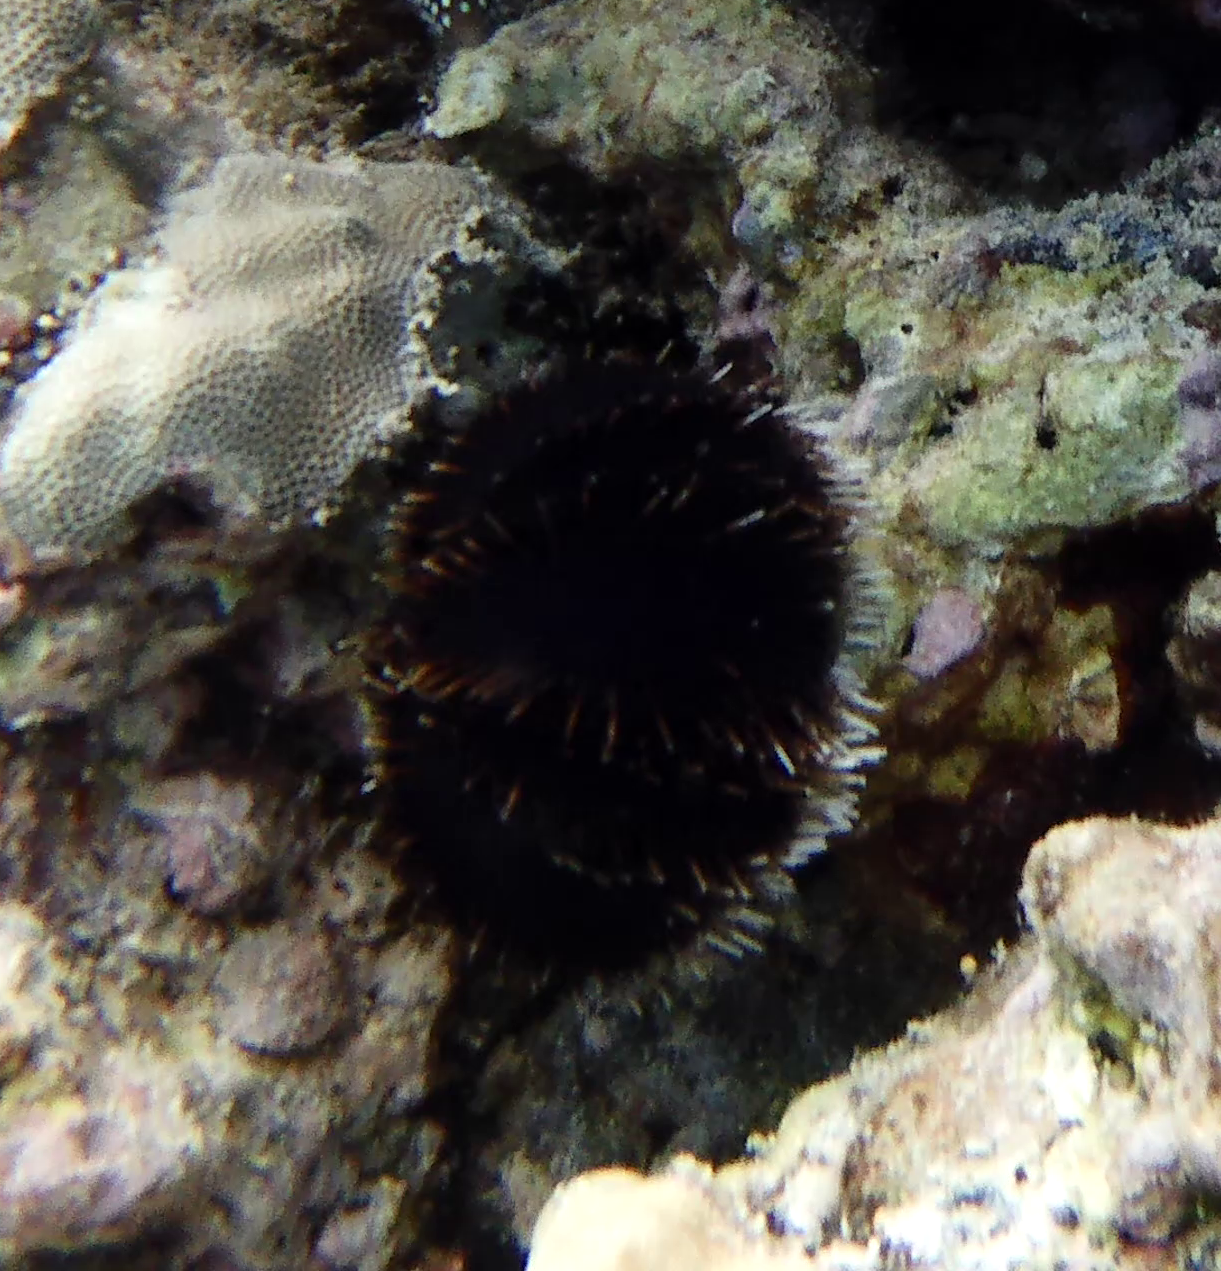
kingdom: Animalia
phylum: Echinodermata
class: Echinoidea
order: Camarodonta
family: Toxopneustidae
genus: Tripneustes
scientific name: Tripneustes gratilla
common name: Bischofsmützenseeigel
